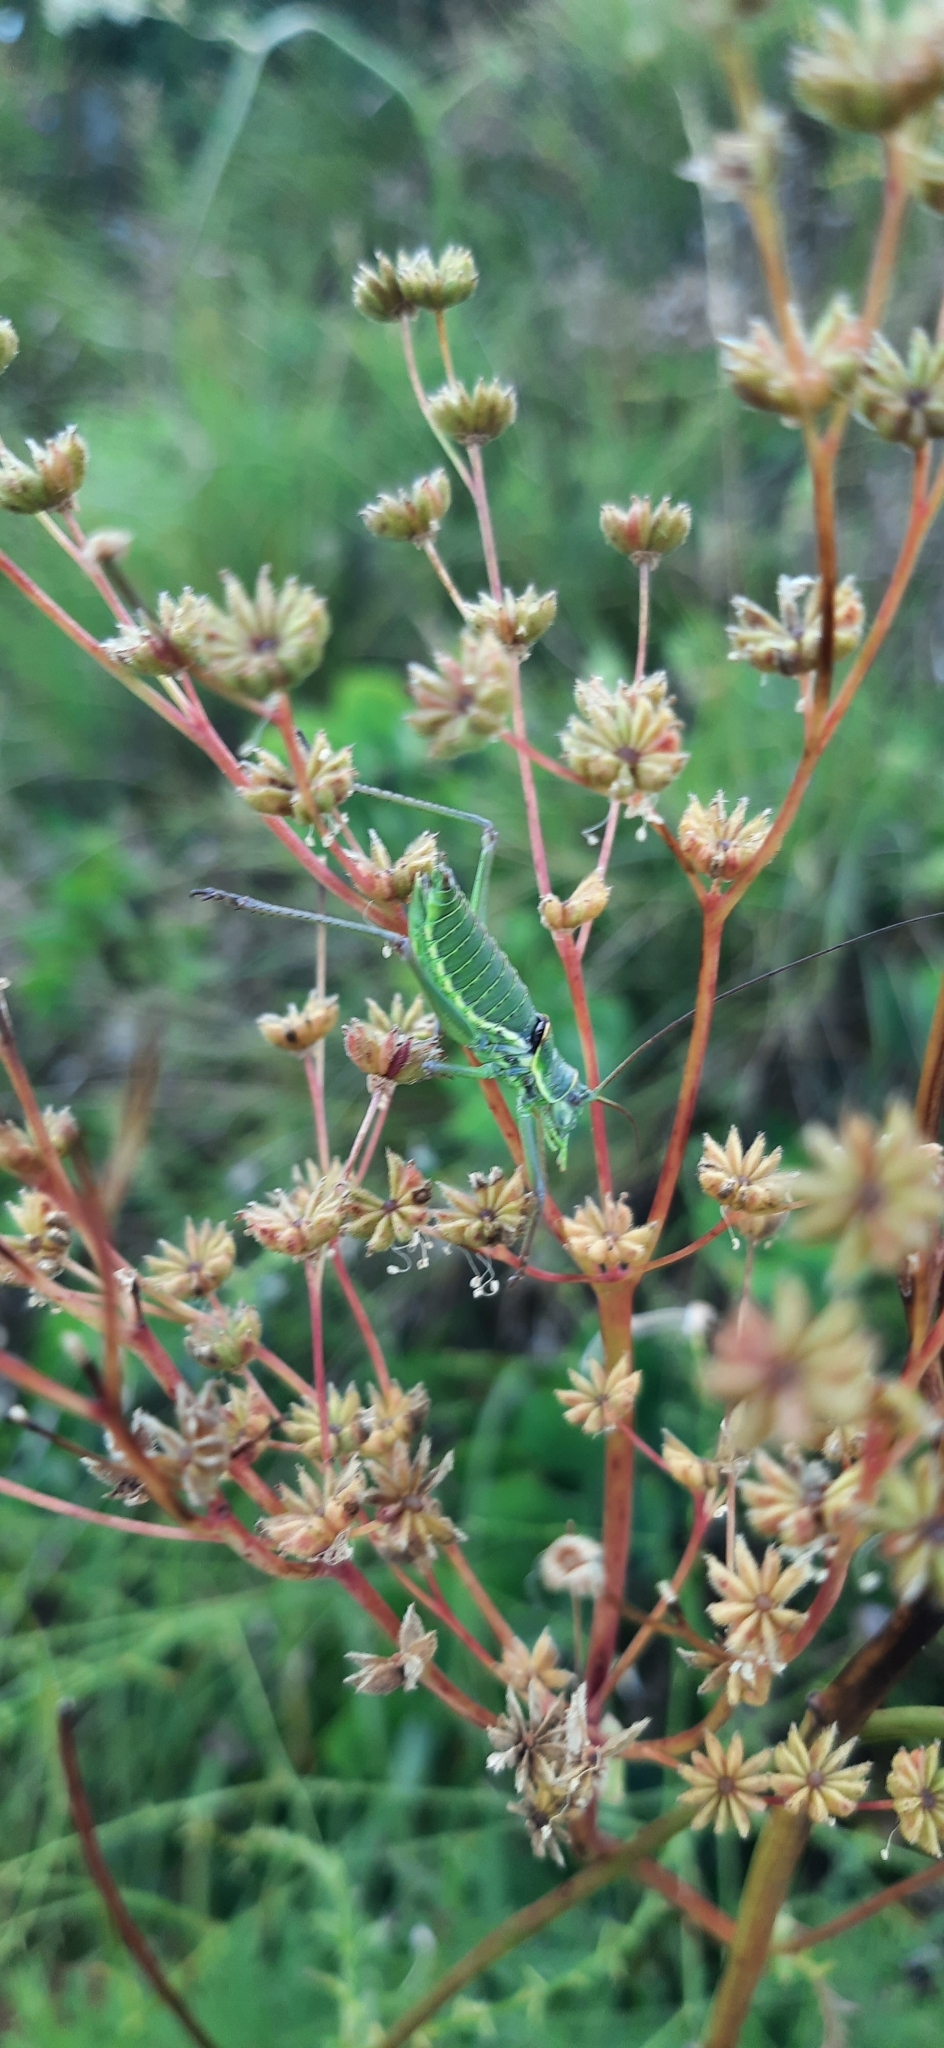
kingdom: Animalia
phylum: Arthropoda
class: Insecta
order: Orthoptera
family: Tettigoniidae
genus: Dinarippiger
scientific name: Dinarippiger discoidalis
